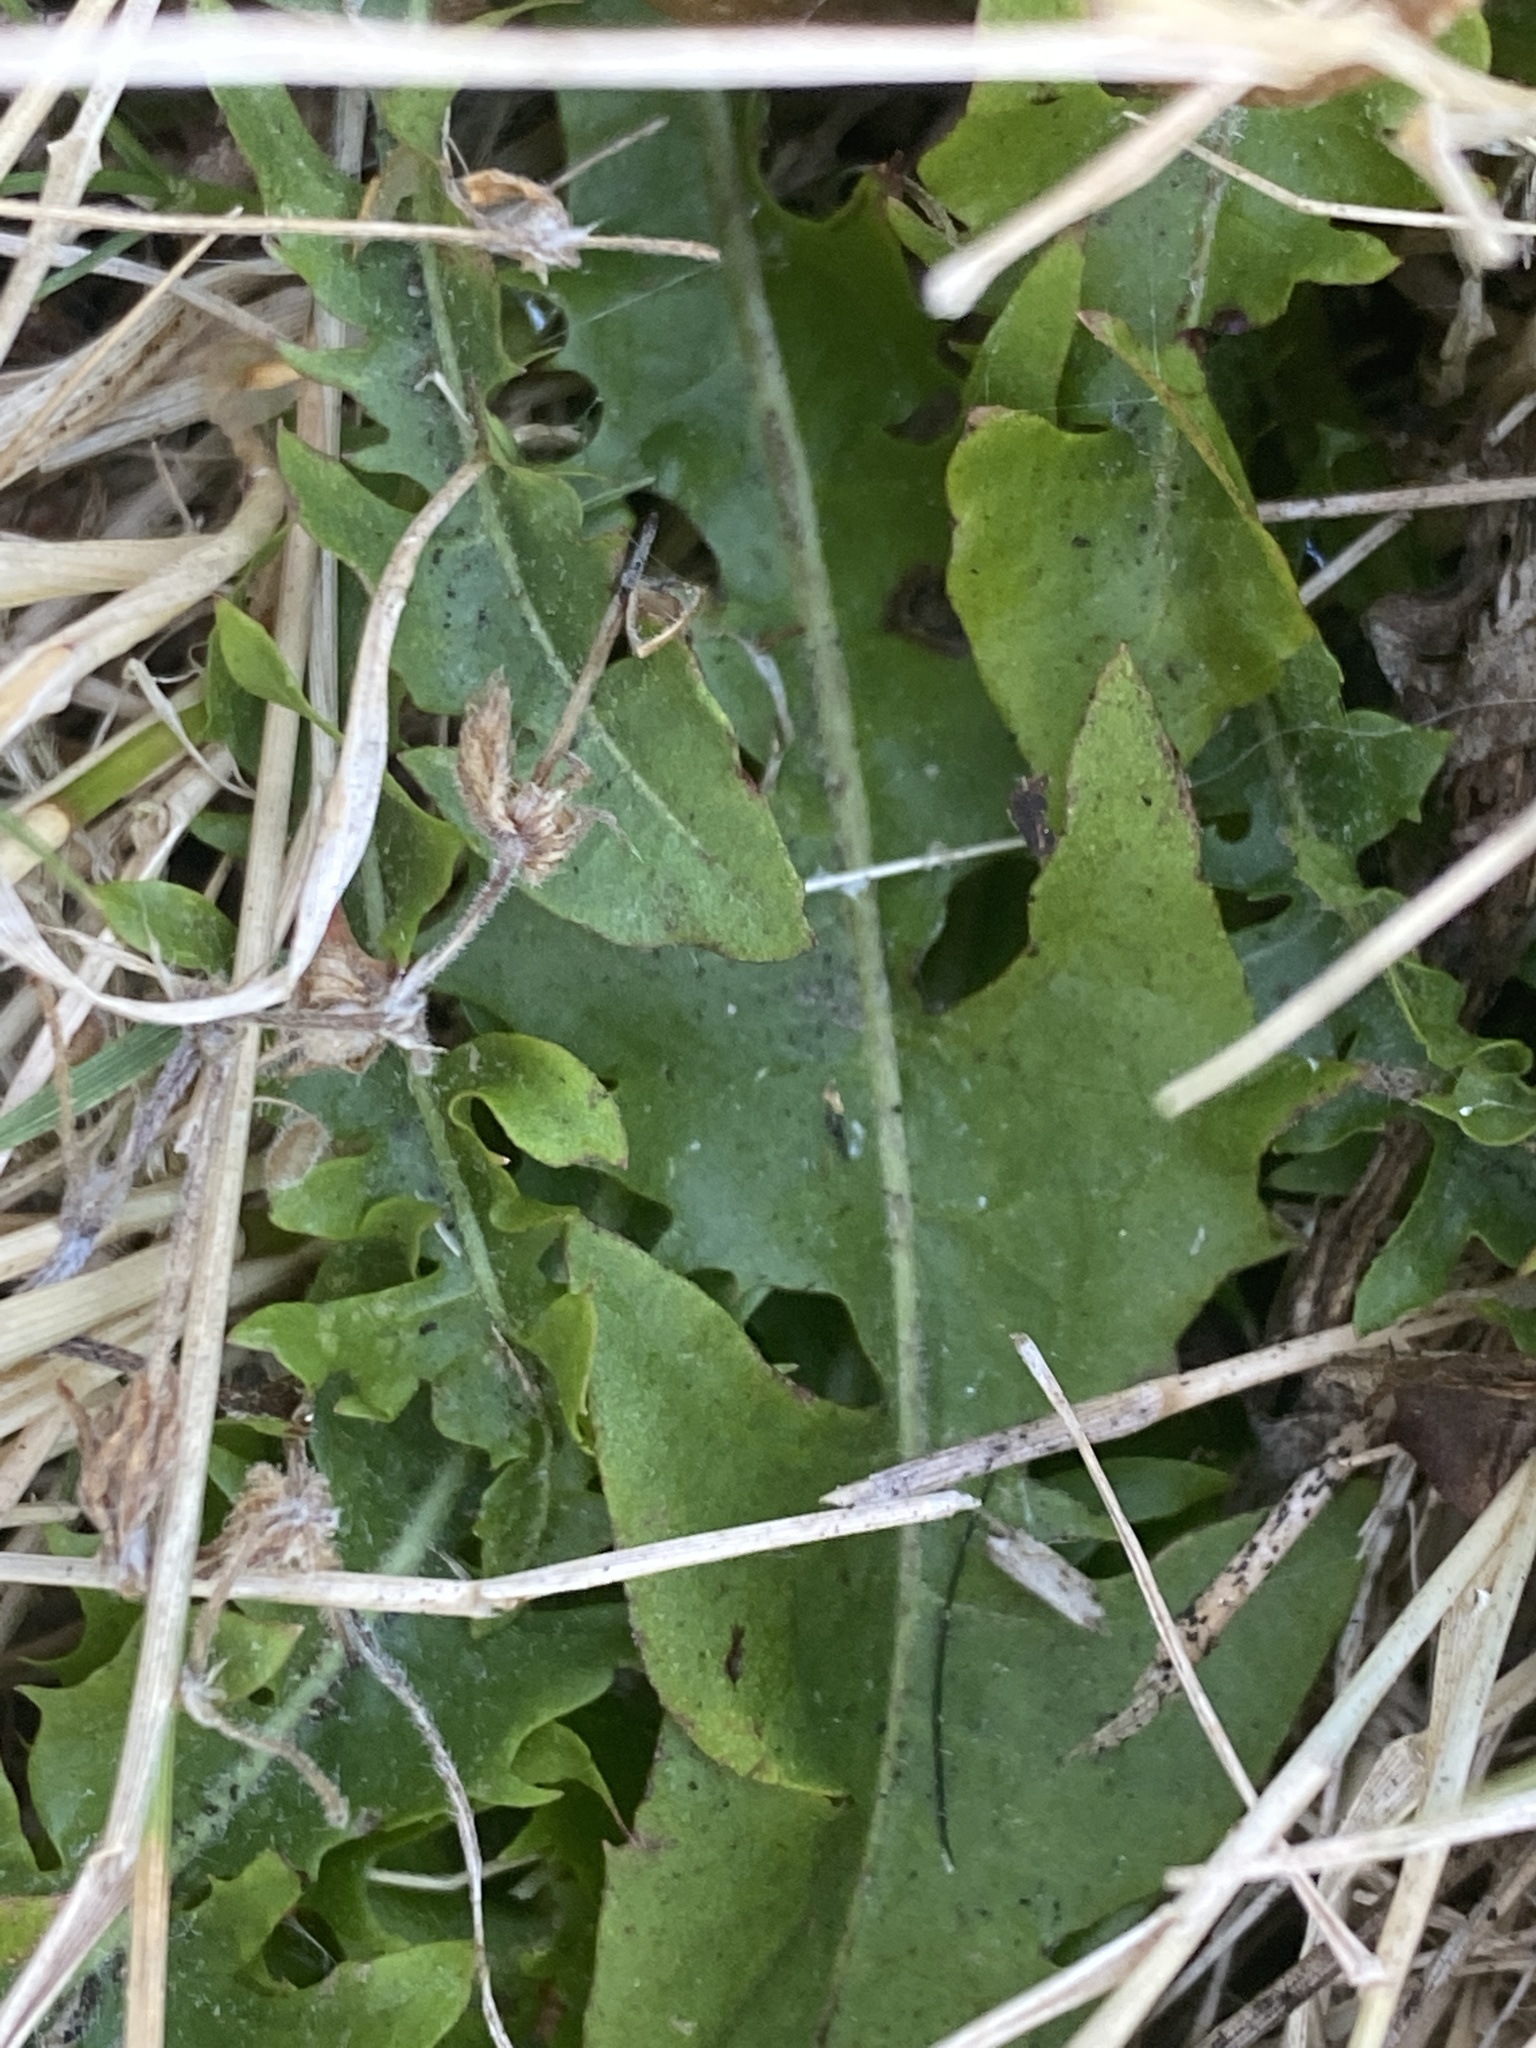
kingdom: Plantae
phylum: Tracheophyta
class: Magnoliopsida
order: Asterales
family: Asteraceae
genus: Taraxacum
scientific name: Taraxacum officinale
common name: Common dandelion
